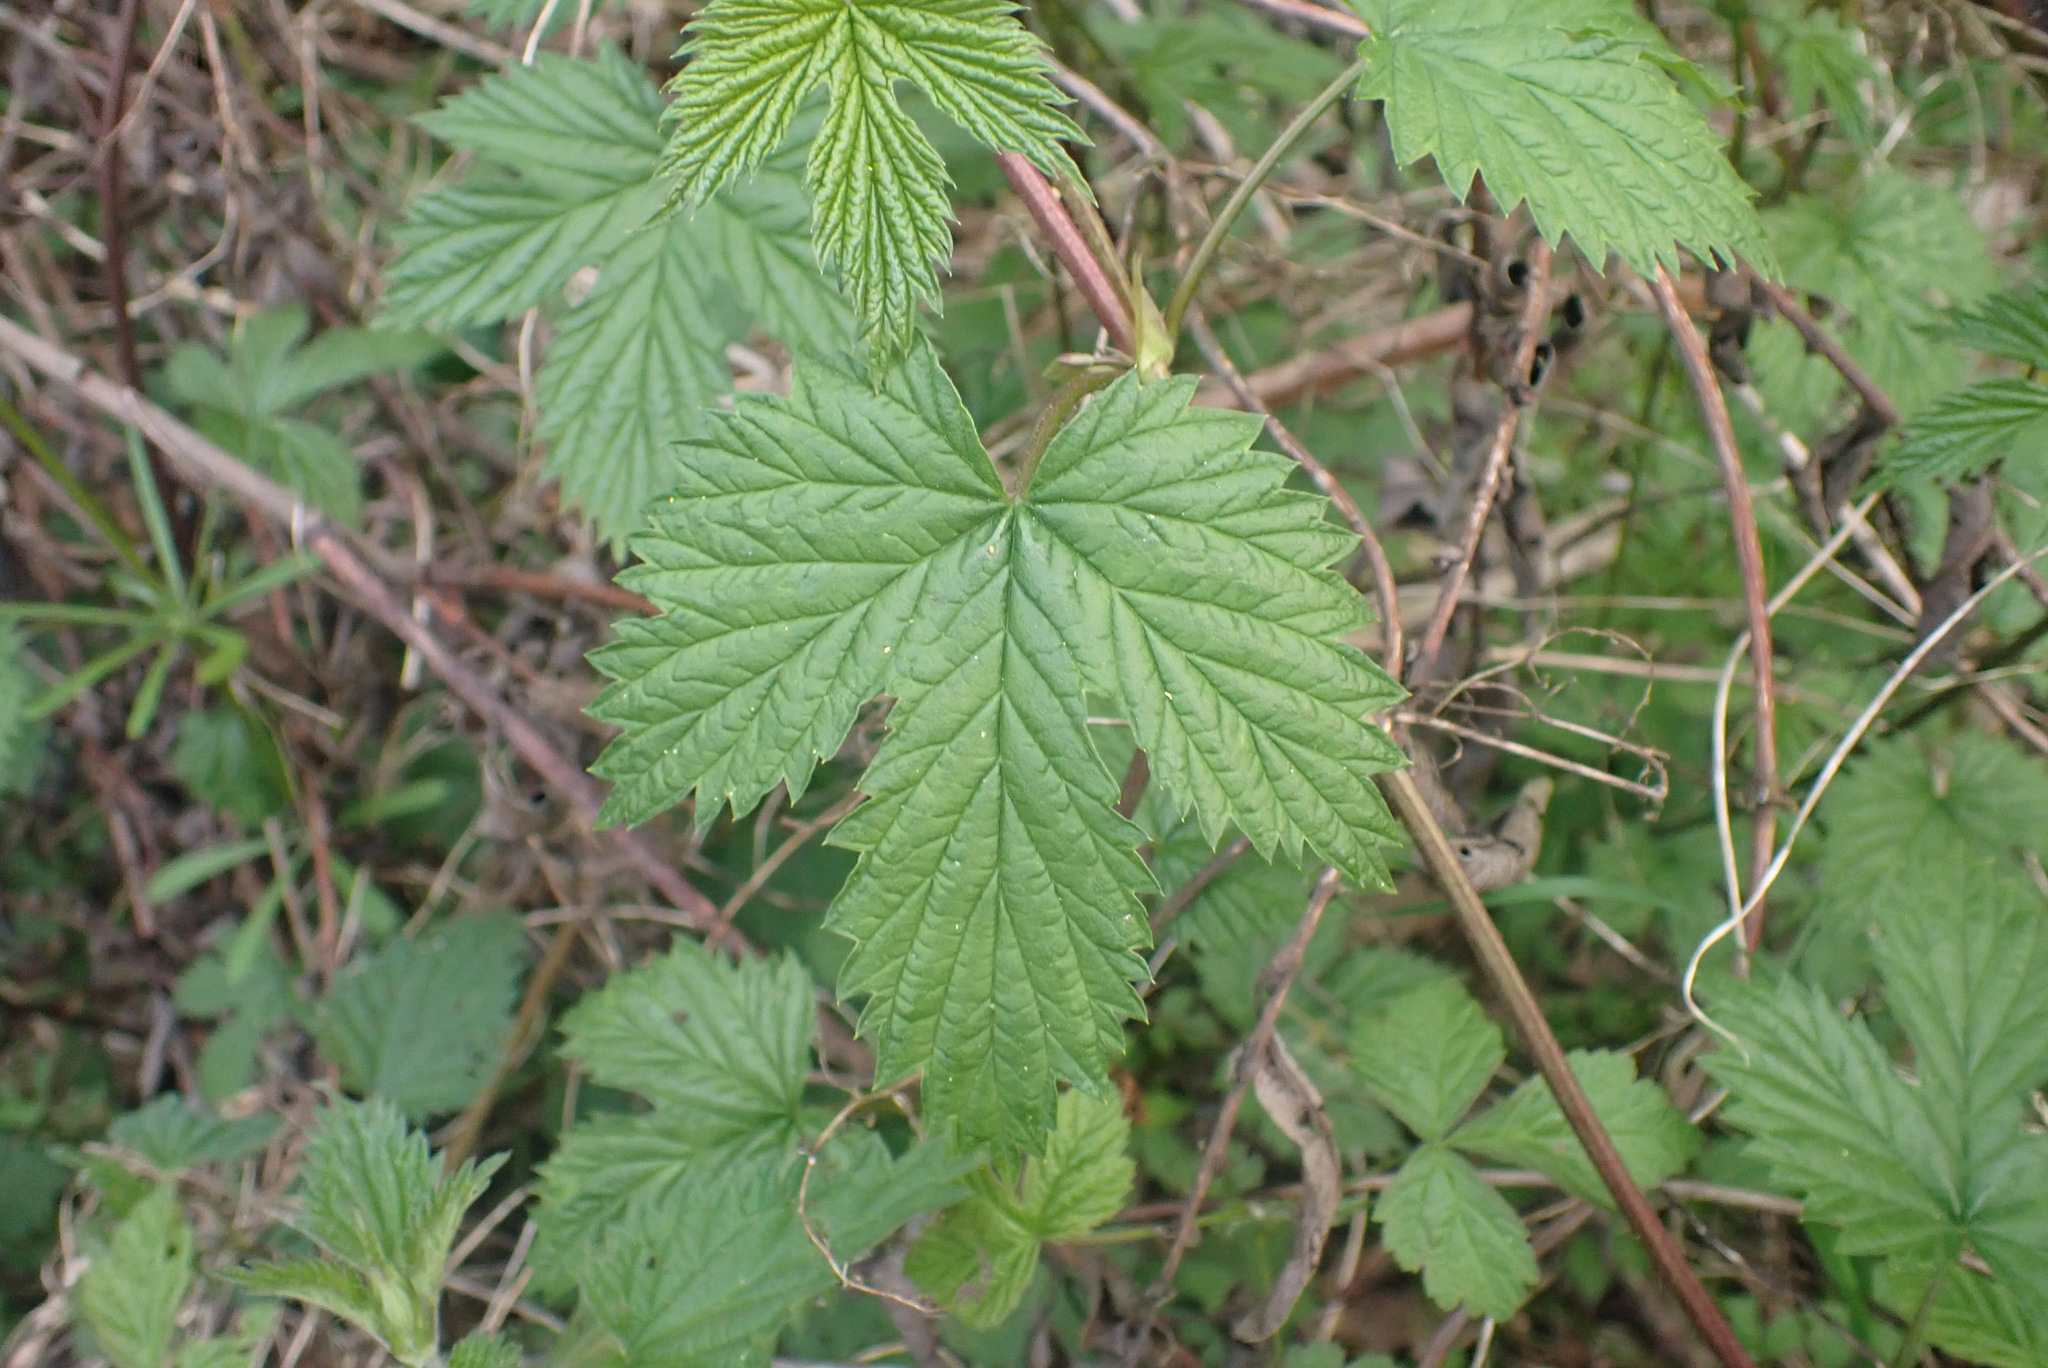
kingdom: Plantae
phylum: Tracheophyta
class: Magnoliopsida
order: Rosales
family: Cannabaceae
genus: Humulus
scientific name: Humulus lupulus
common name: Hop
